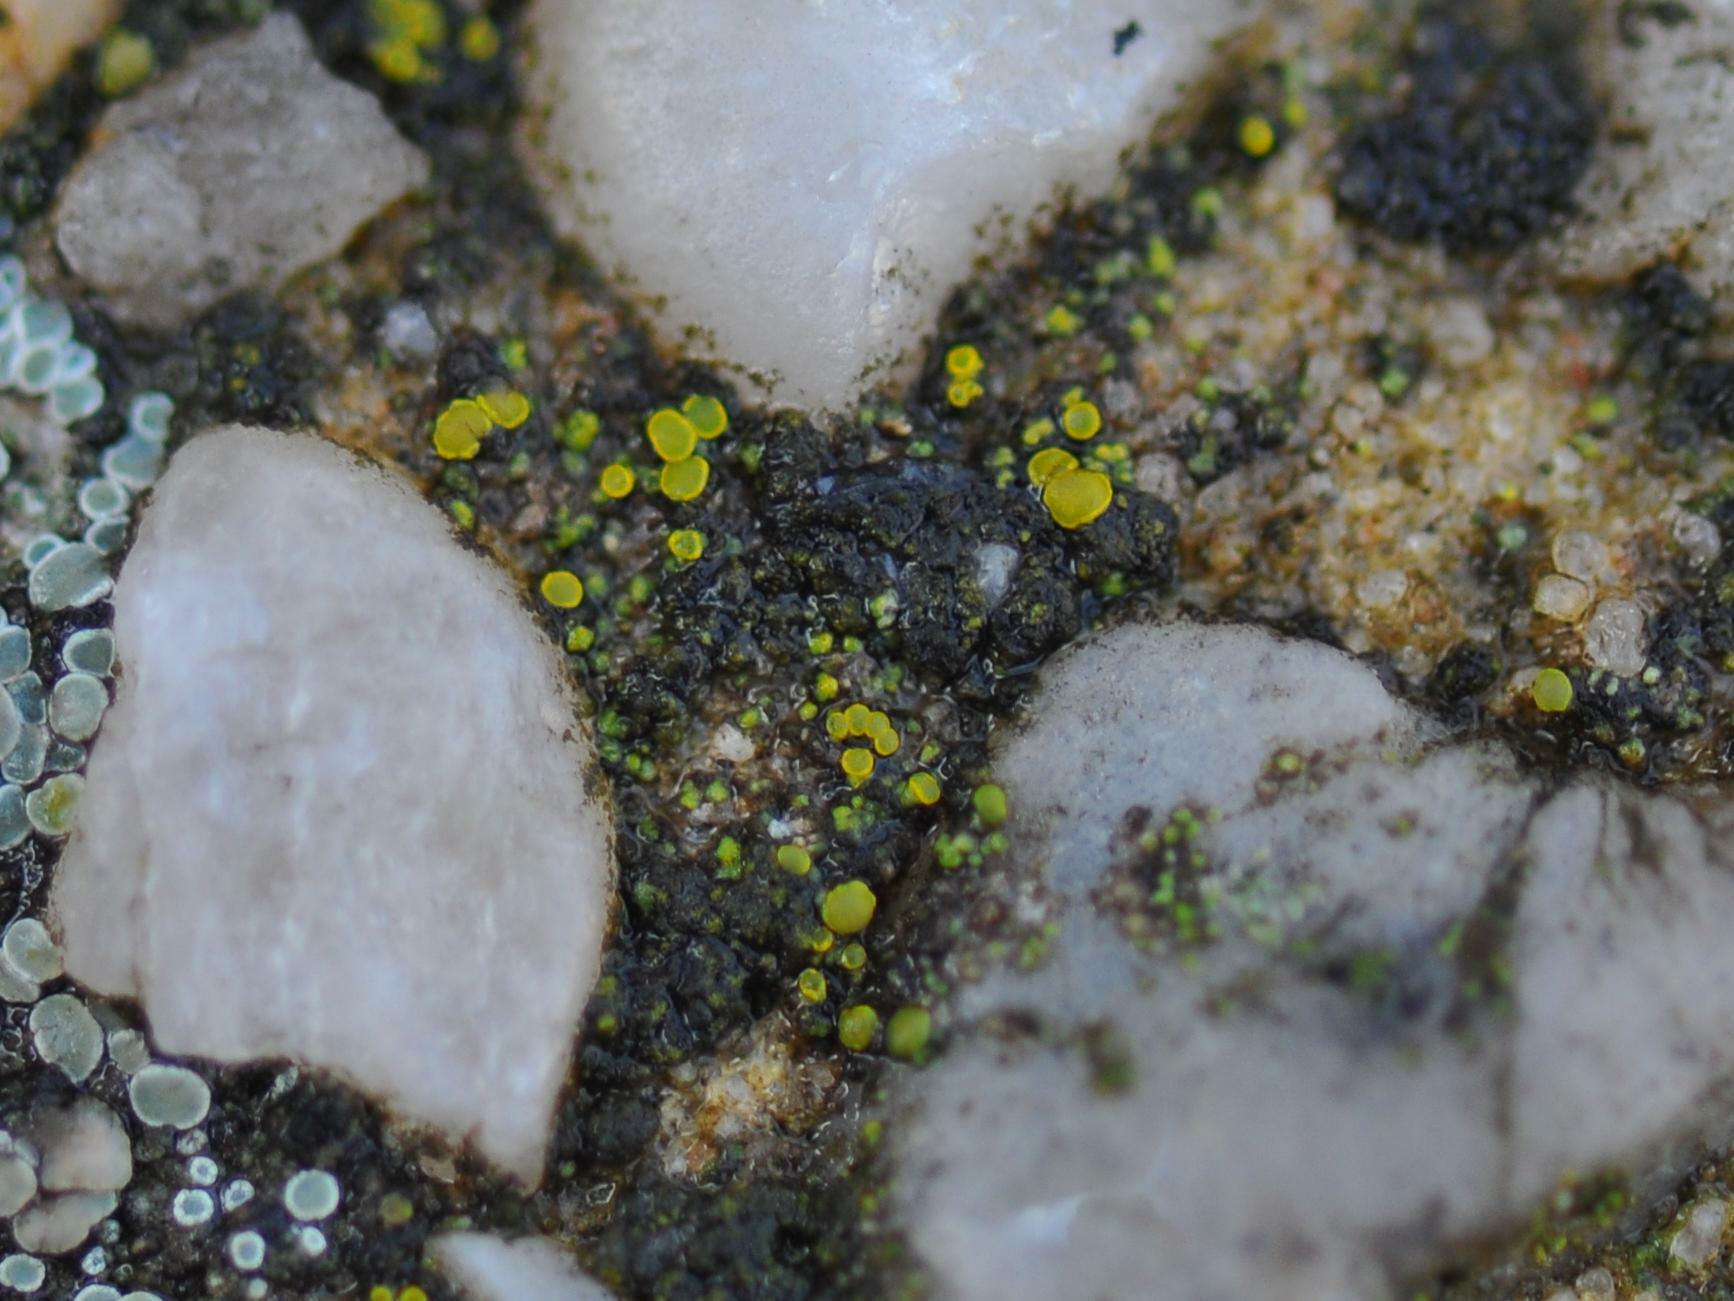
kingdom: Fungi
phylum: Ascomycota
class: Candelariomycetes
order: Candelariales
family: Candelariaceae
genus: Candelariella
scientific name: Candelariella aurella
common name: Hidden goldspeck lichen
